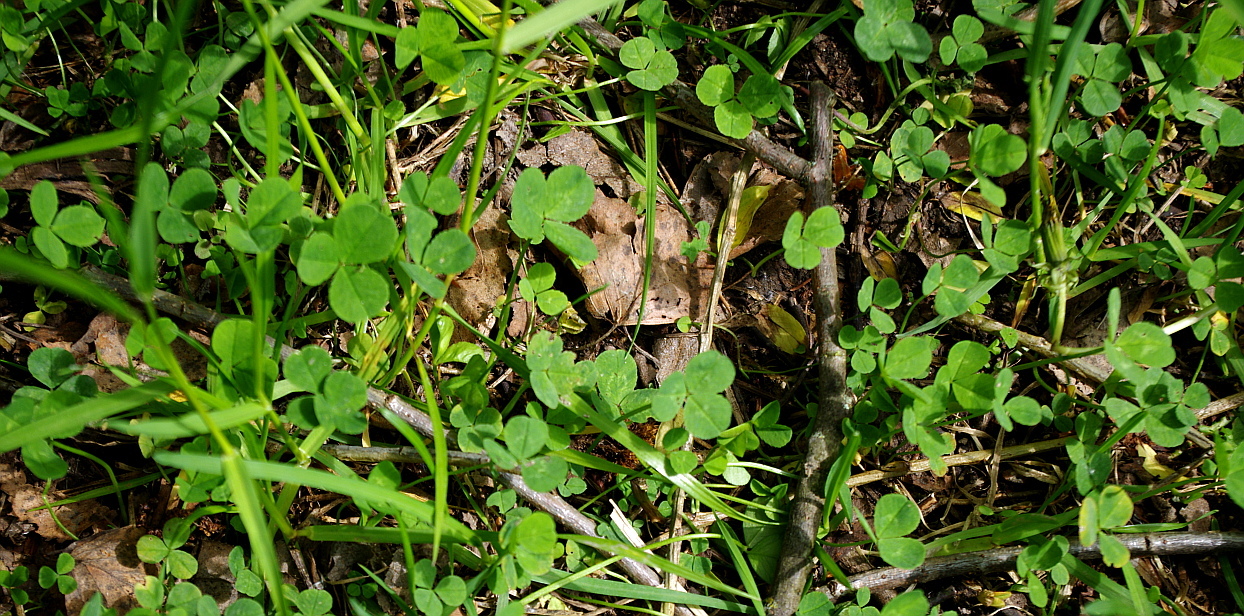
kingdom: Plantae
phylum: Tracheophyta
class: Magnoliopsida
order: Fabales
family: Fabaceae
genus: Trifolium
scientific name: Trifolium repens
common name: White clover
